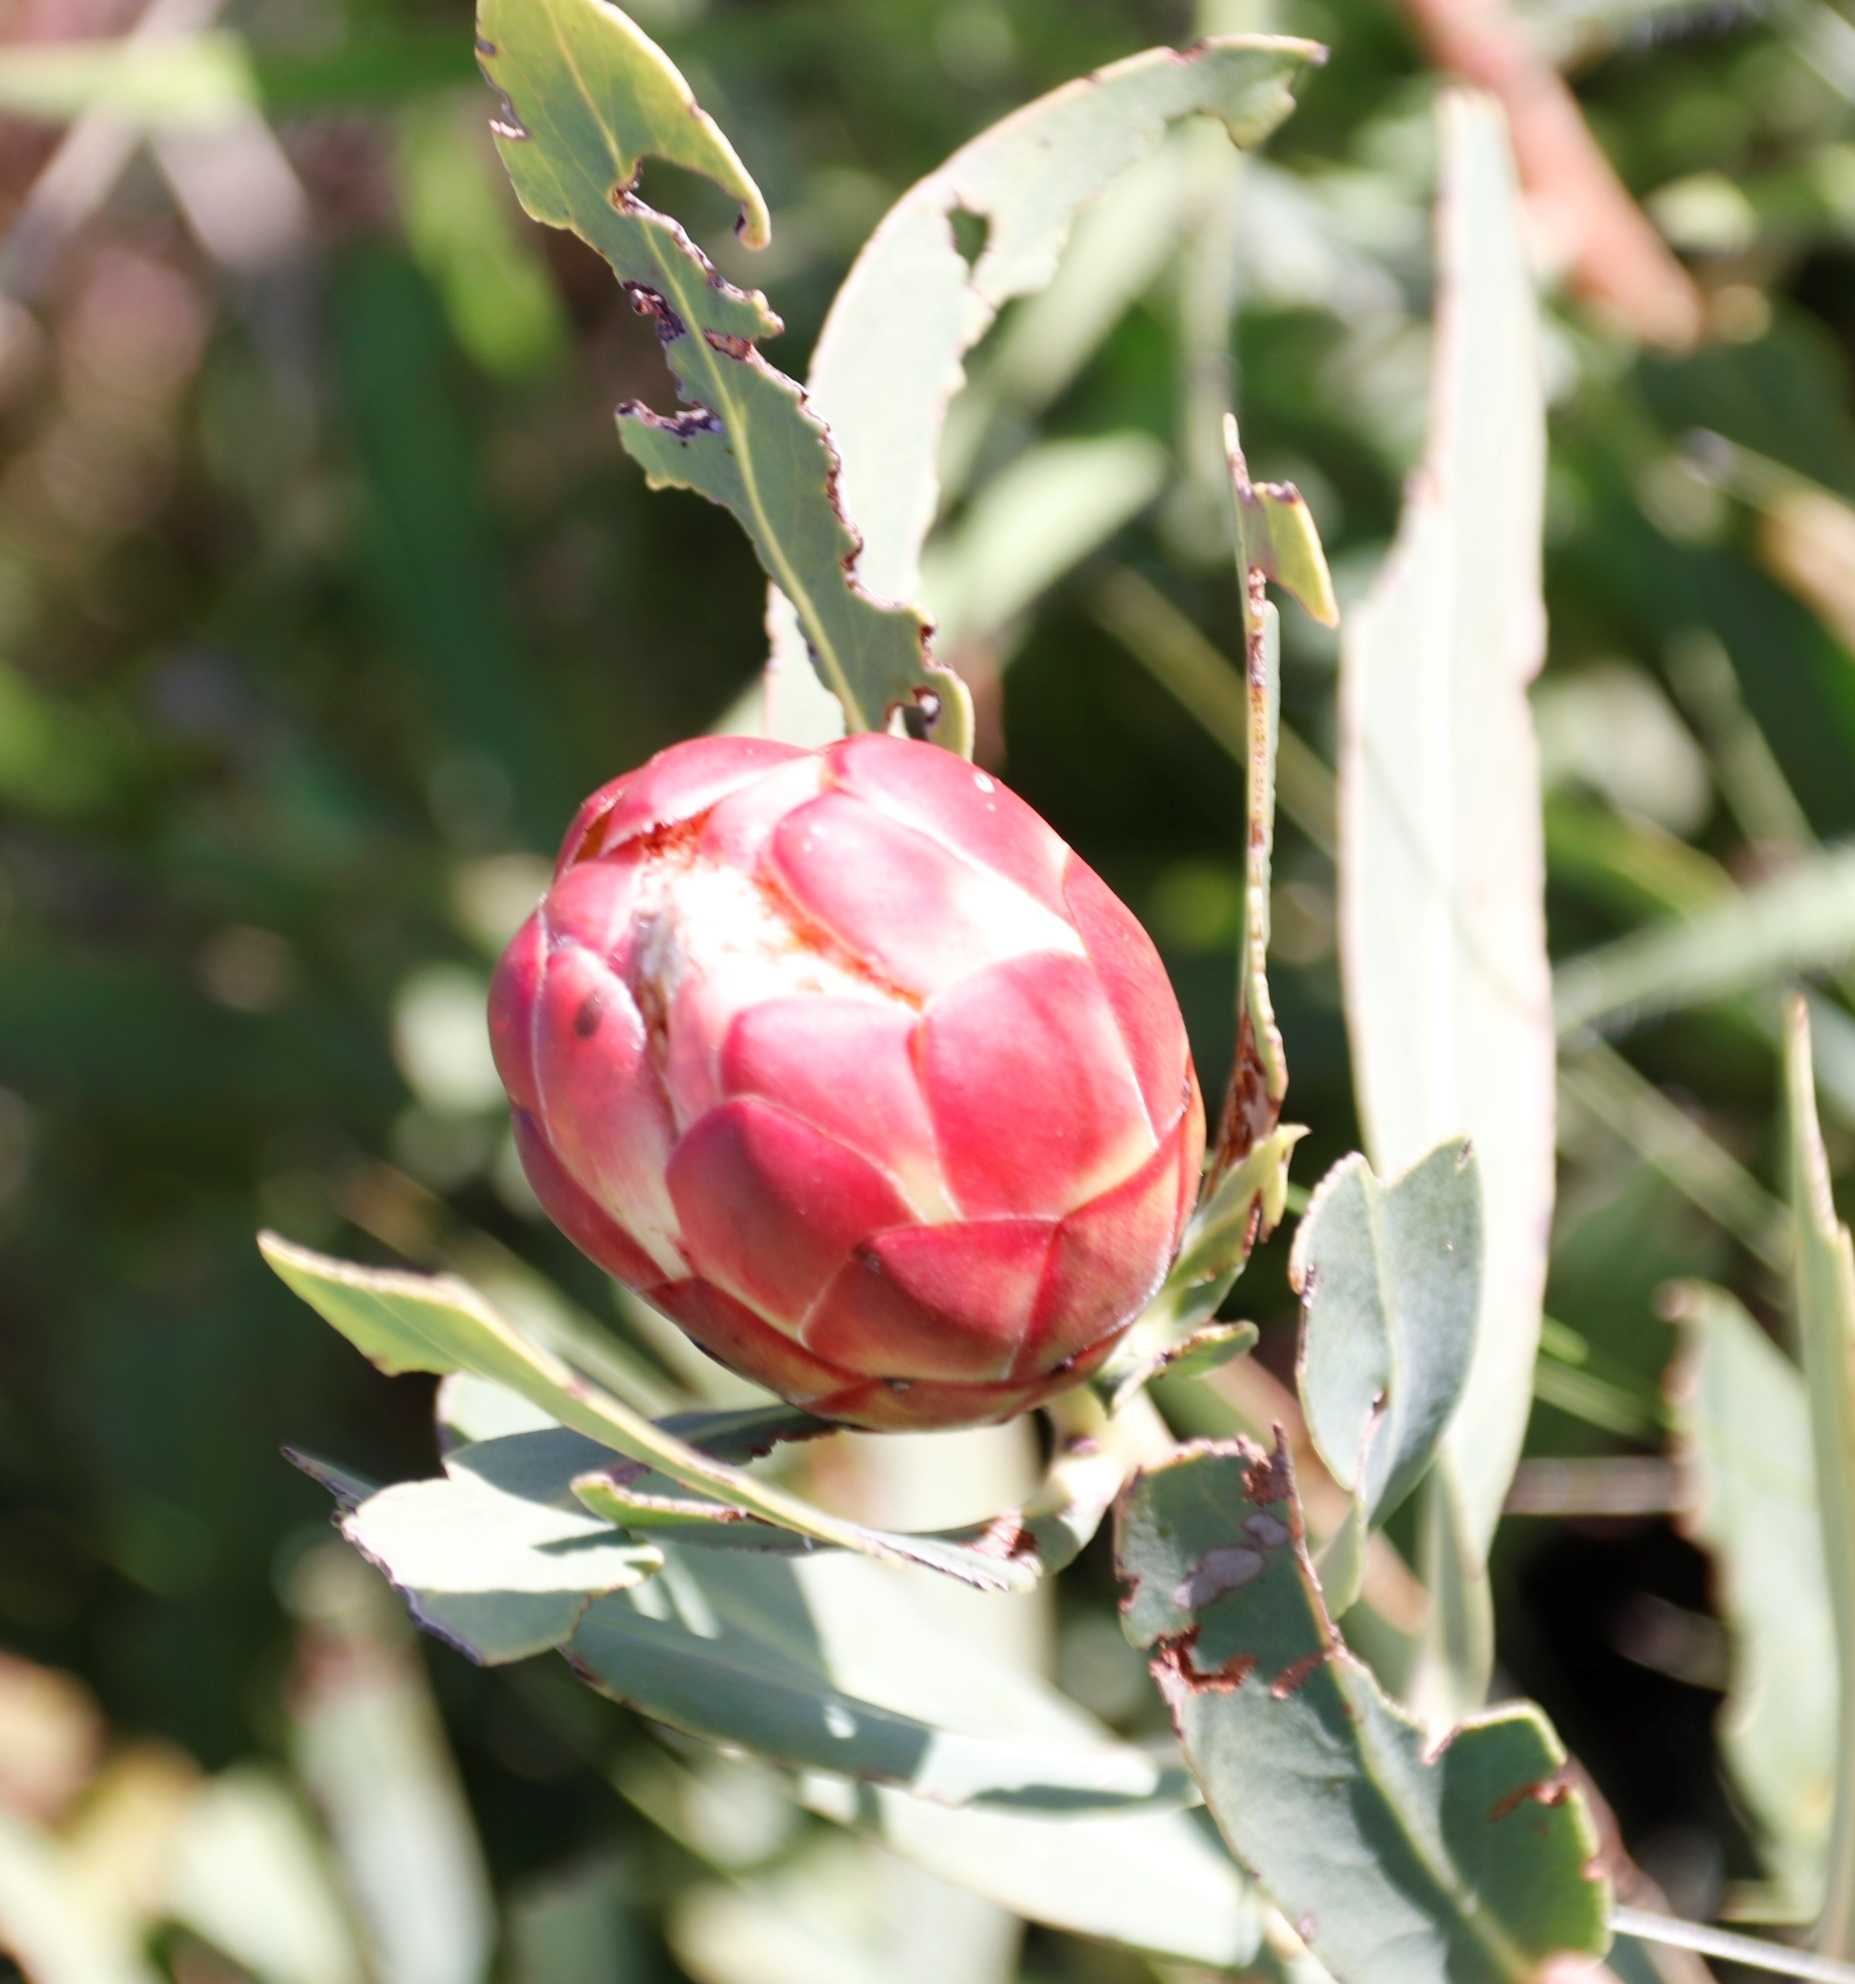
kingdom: Plantae
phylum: Tracheophyta
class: Magnoliopsida
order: Proteales
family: Proteaceae
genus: Protea
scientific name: Protea simplex
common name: Dwarf grassveld sugarbush
